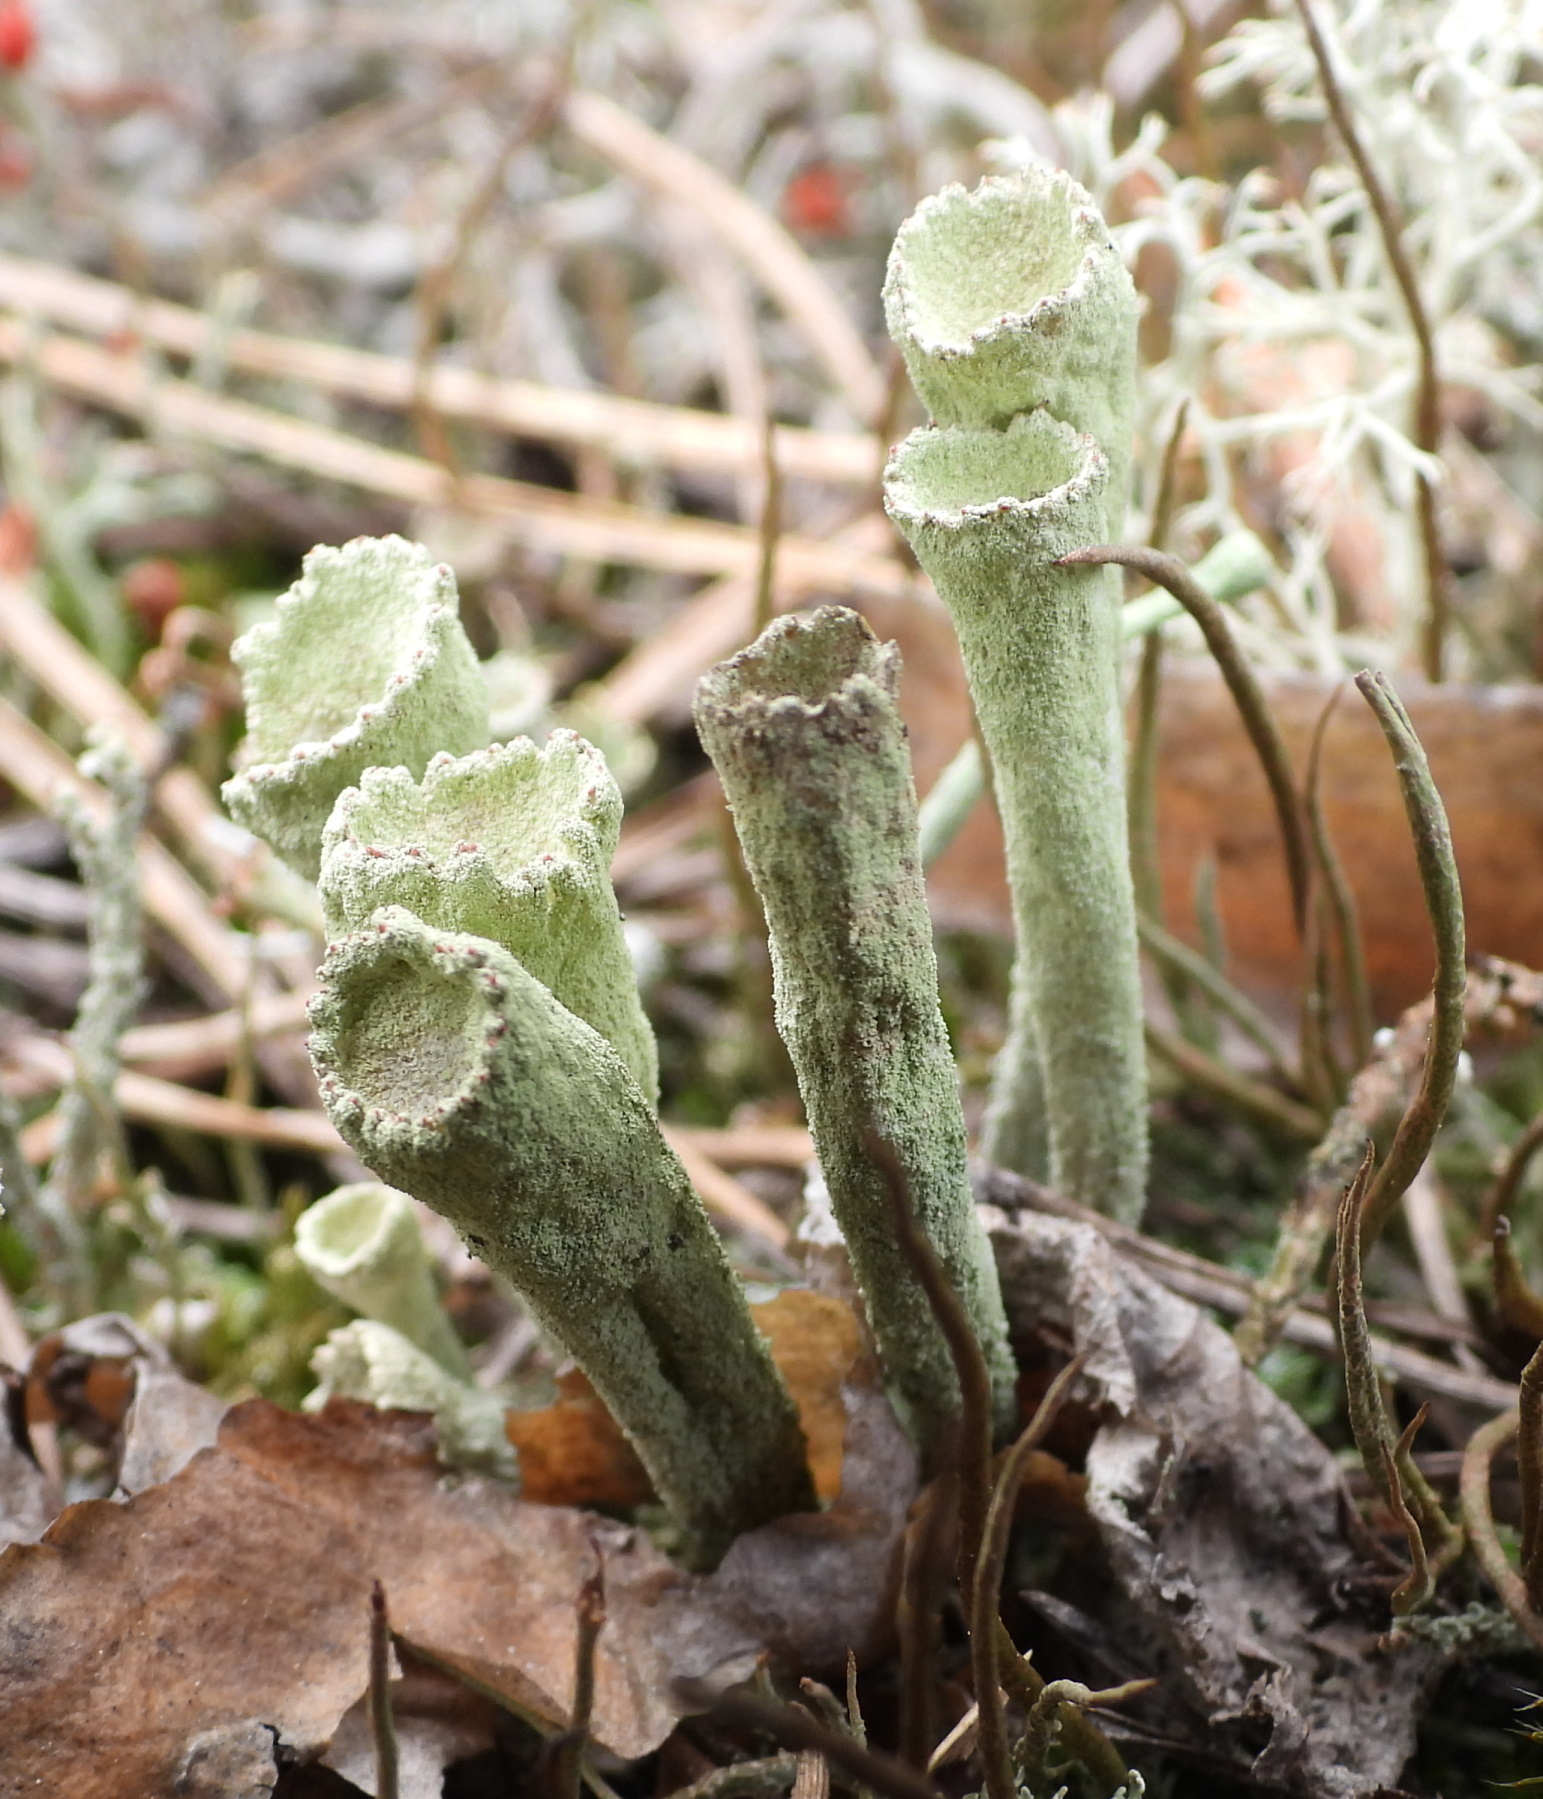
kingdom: Fungi
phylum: Ascomycota
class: Lecanoromycetes
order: Lecanorales
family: Cladoniaceae
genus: Cladonia
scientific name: Cladonia sulphurina
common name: Greater sulphur-cup lichen
